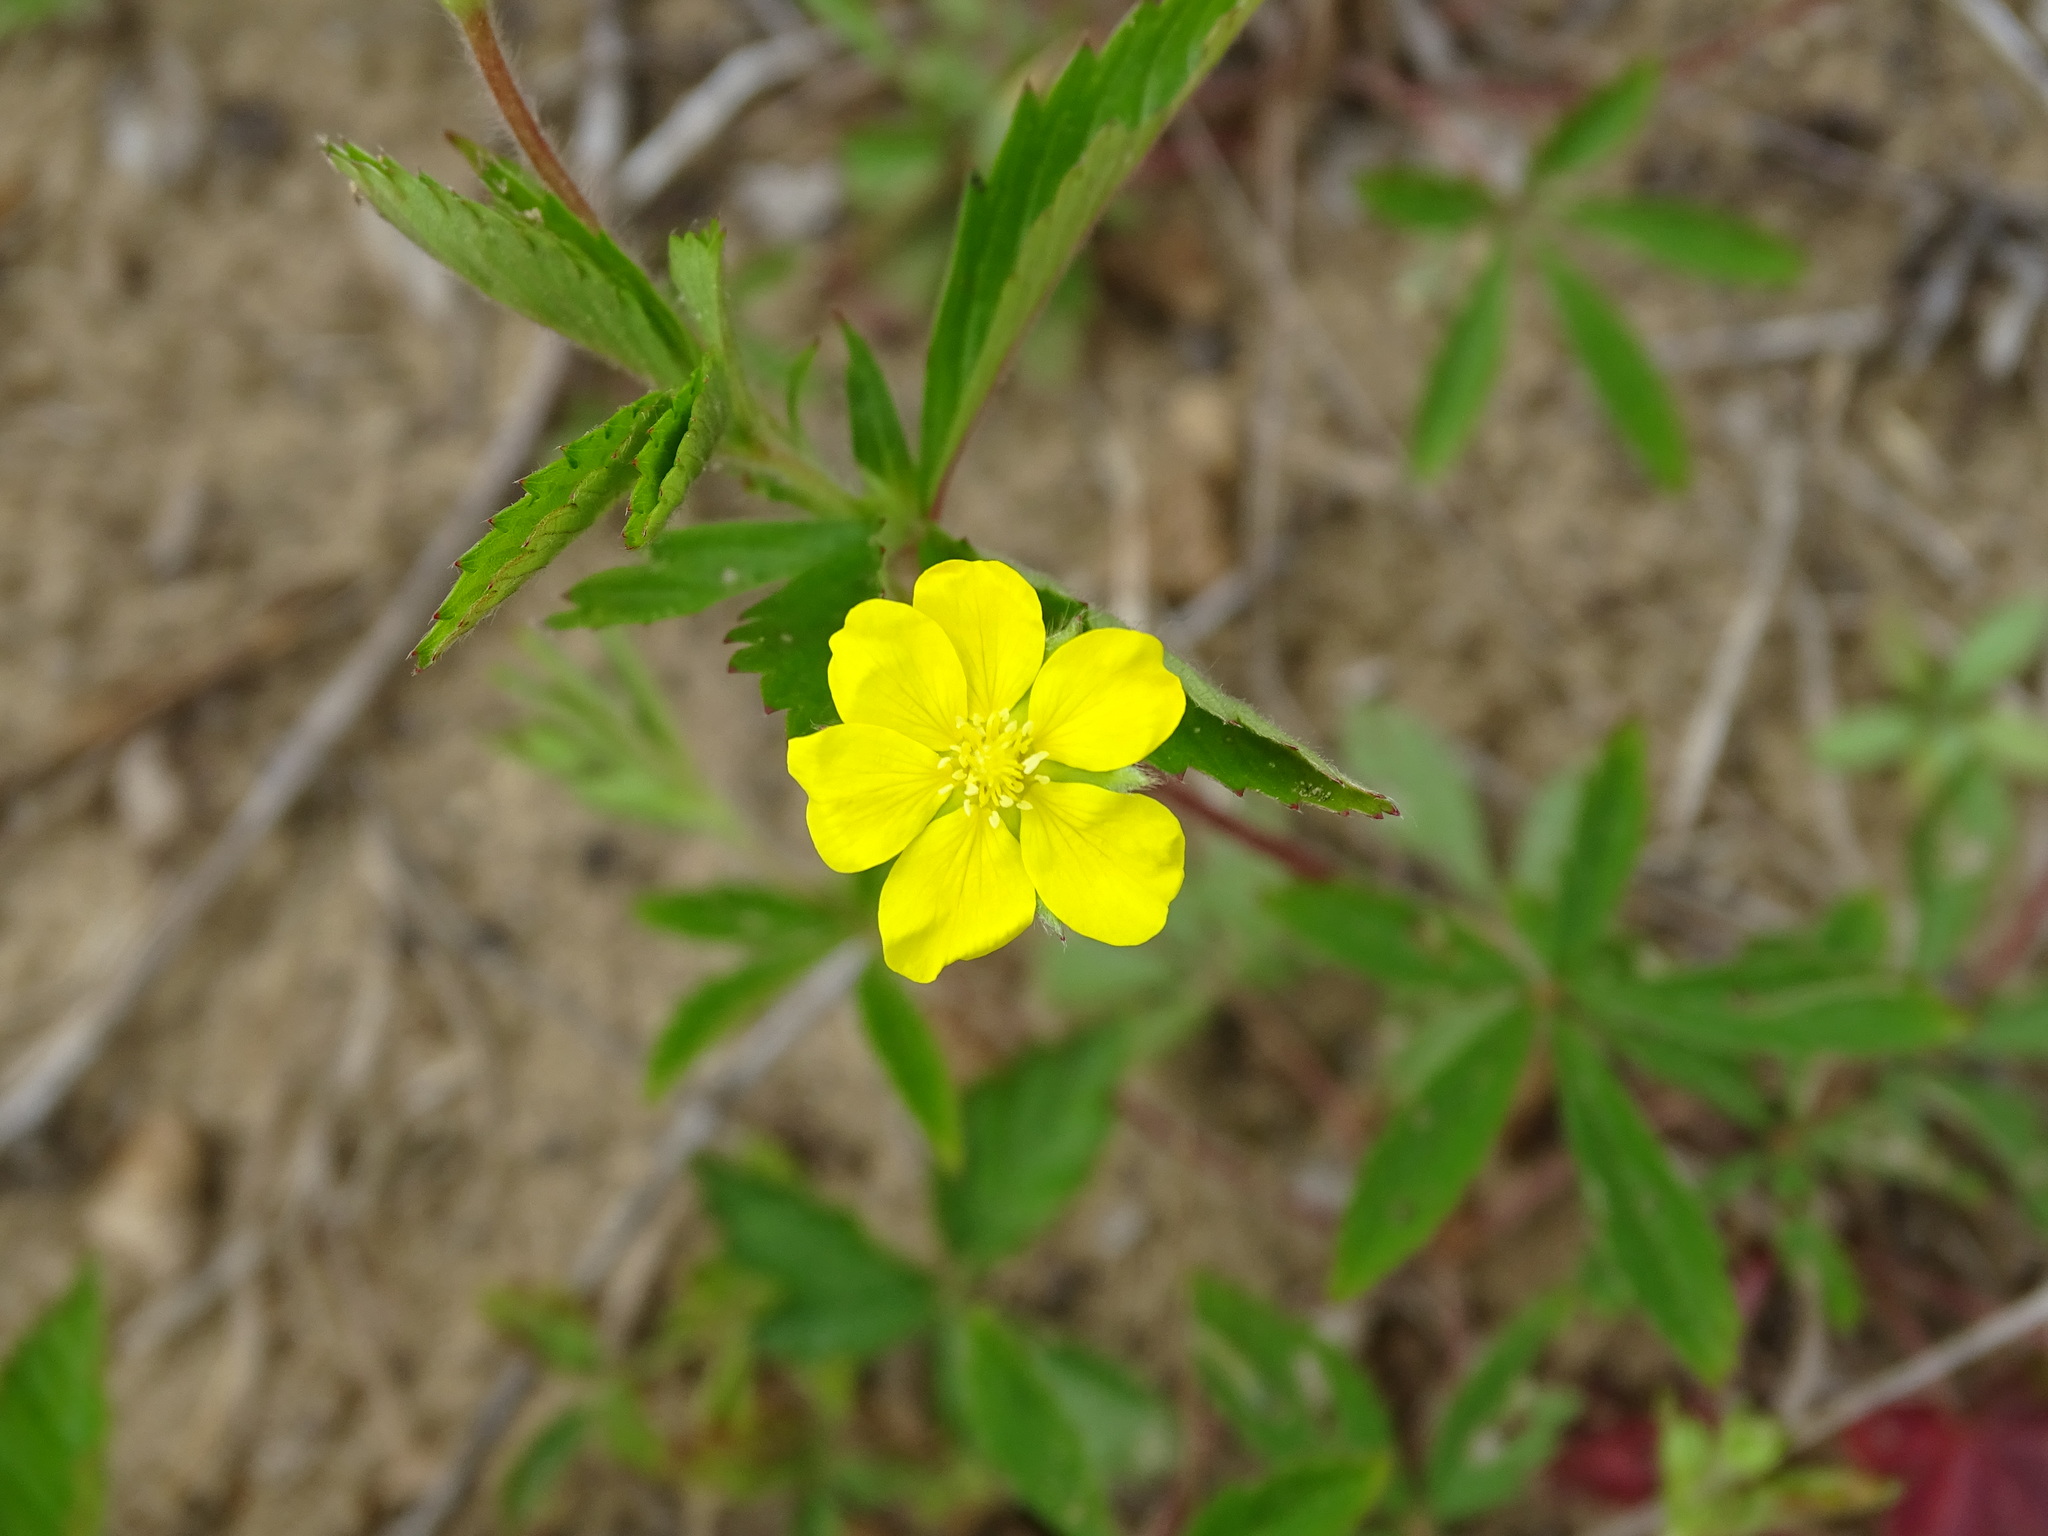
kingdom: Plantae
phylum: Tracheophyta
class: Magnoliopsida
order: Rosales
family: Rosaceae
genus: Potentilla
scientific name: Potentilla simplex
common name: Old field cinquefoil
